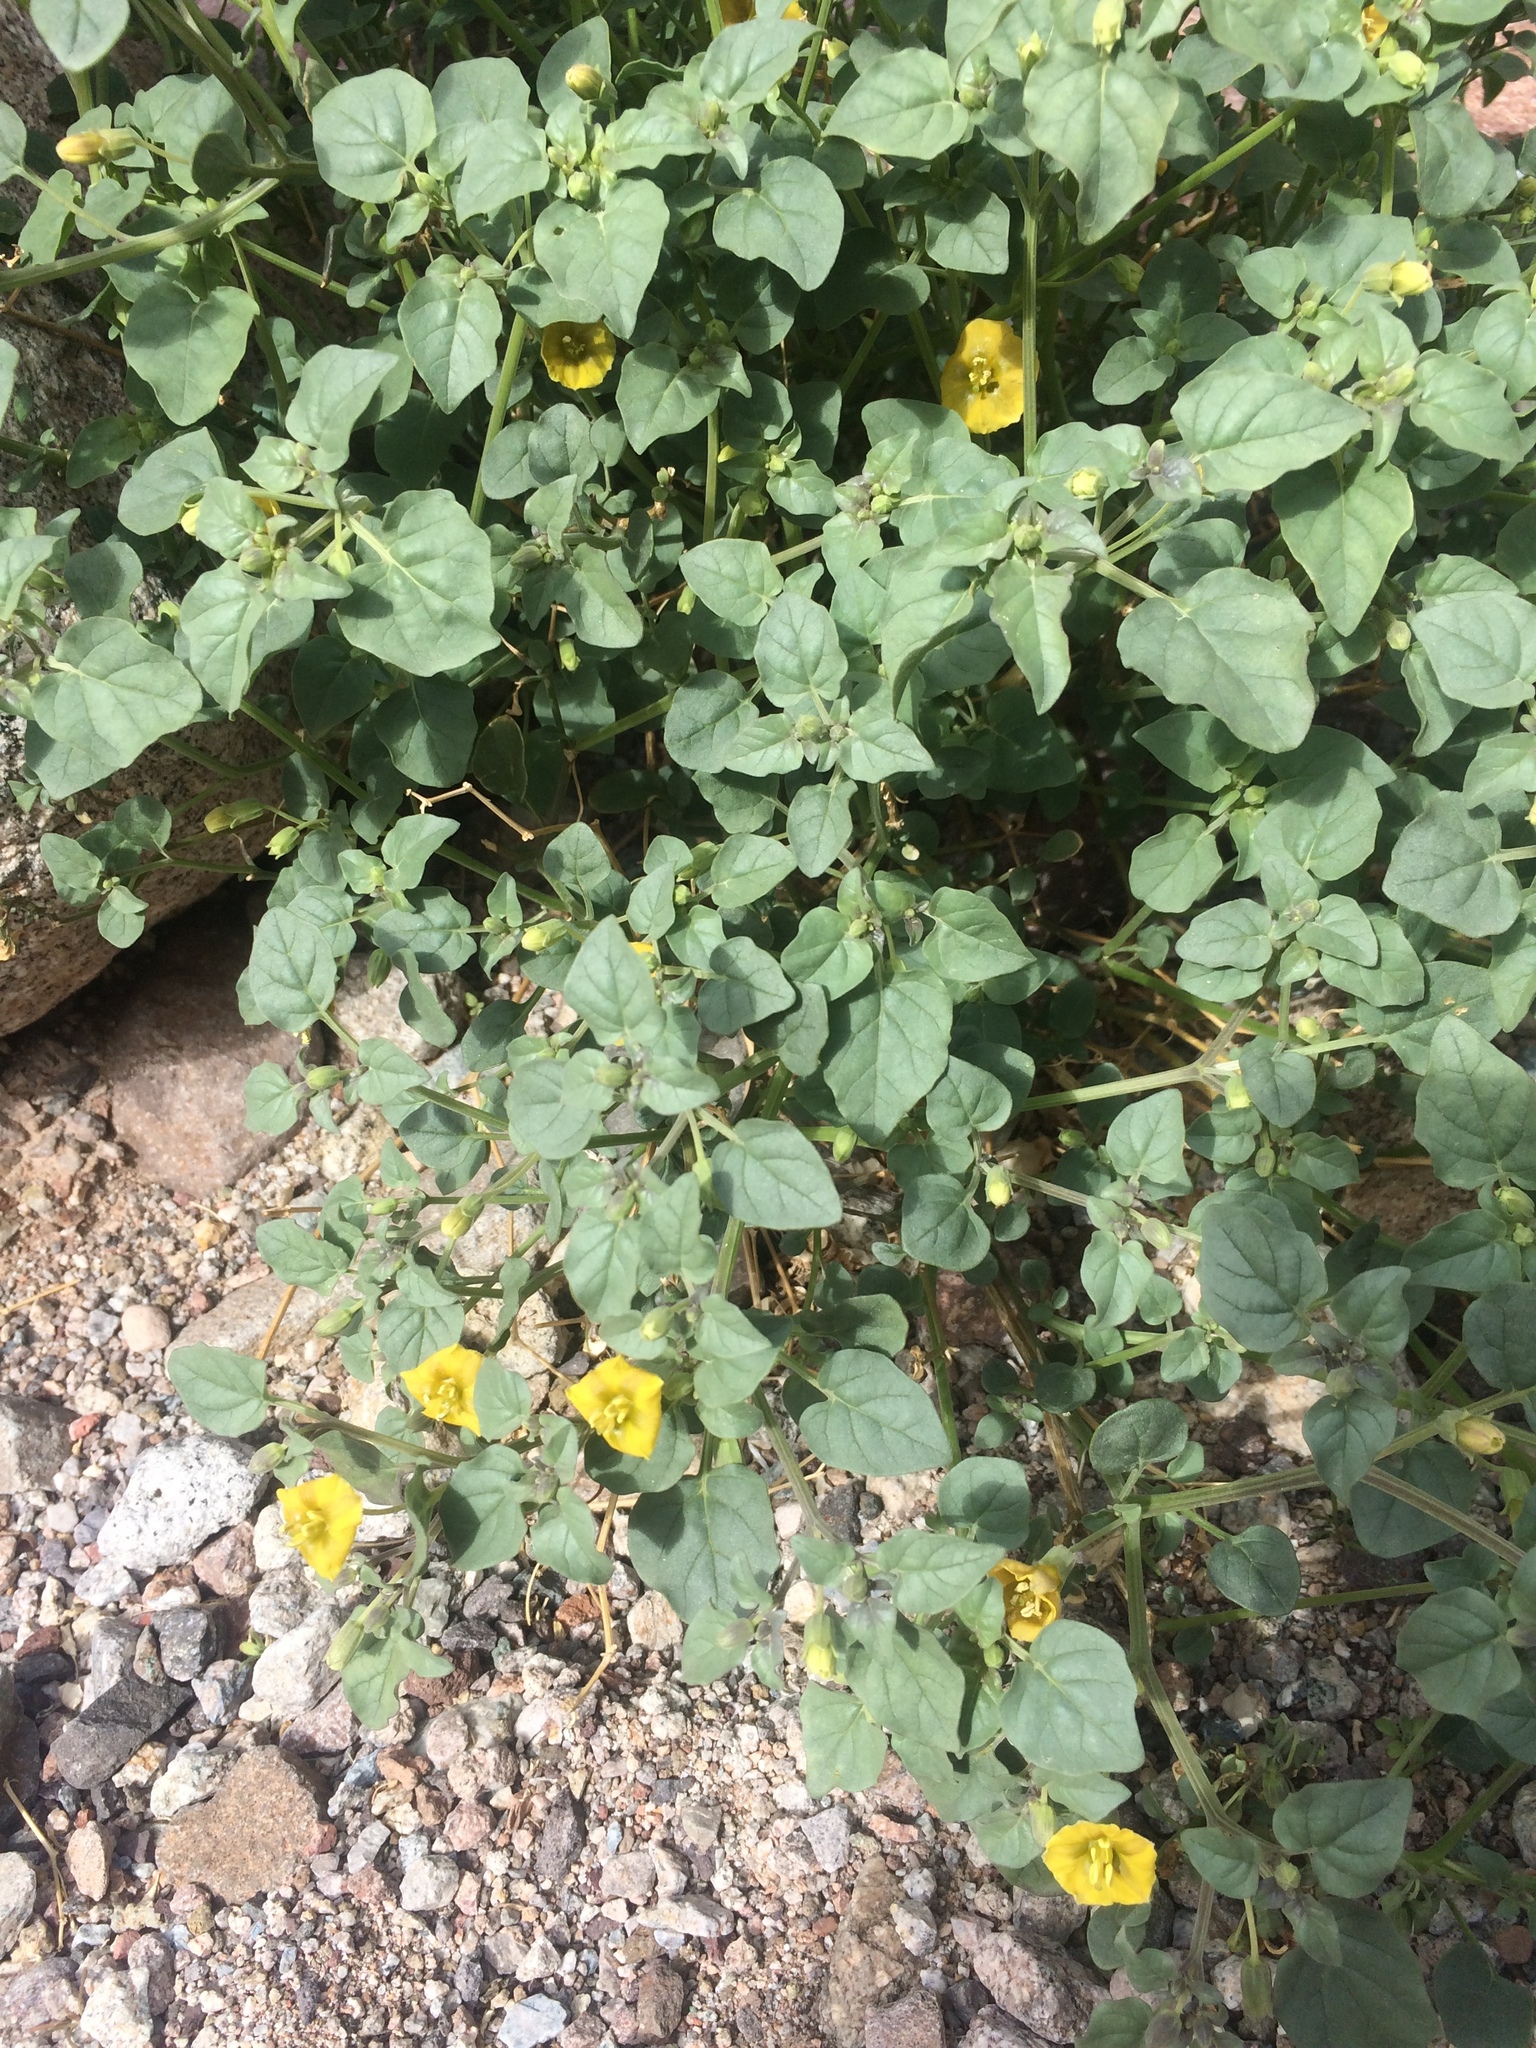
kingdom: Plantae
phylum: Tracheophyta
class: Magnoliopsida
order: Solanales
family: Solanaceae
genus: Physalis
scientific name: Physalis crassifolia
